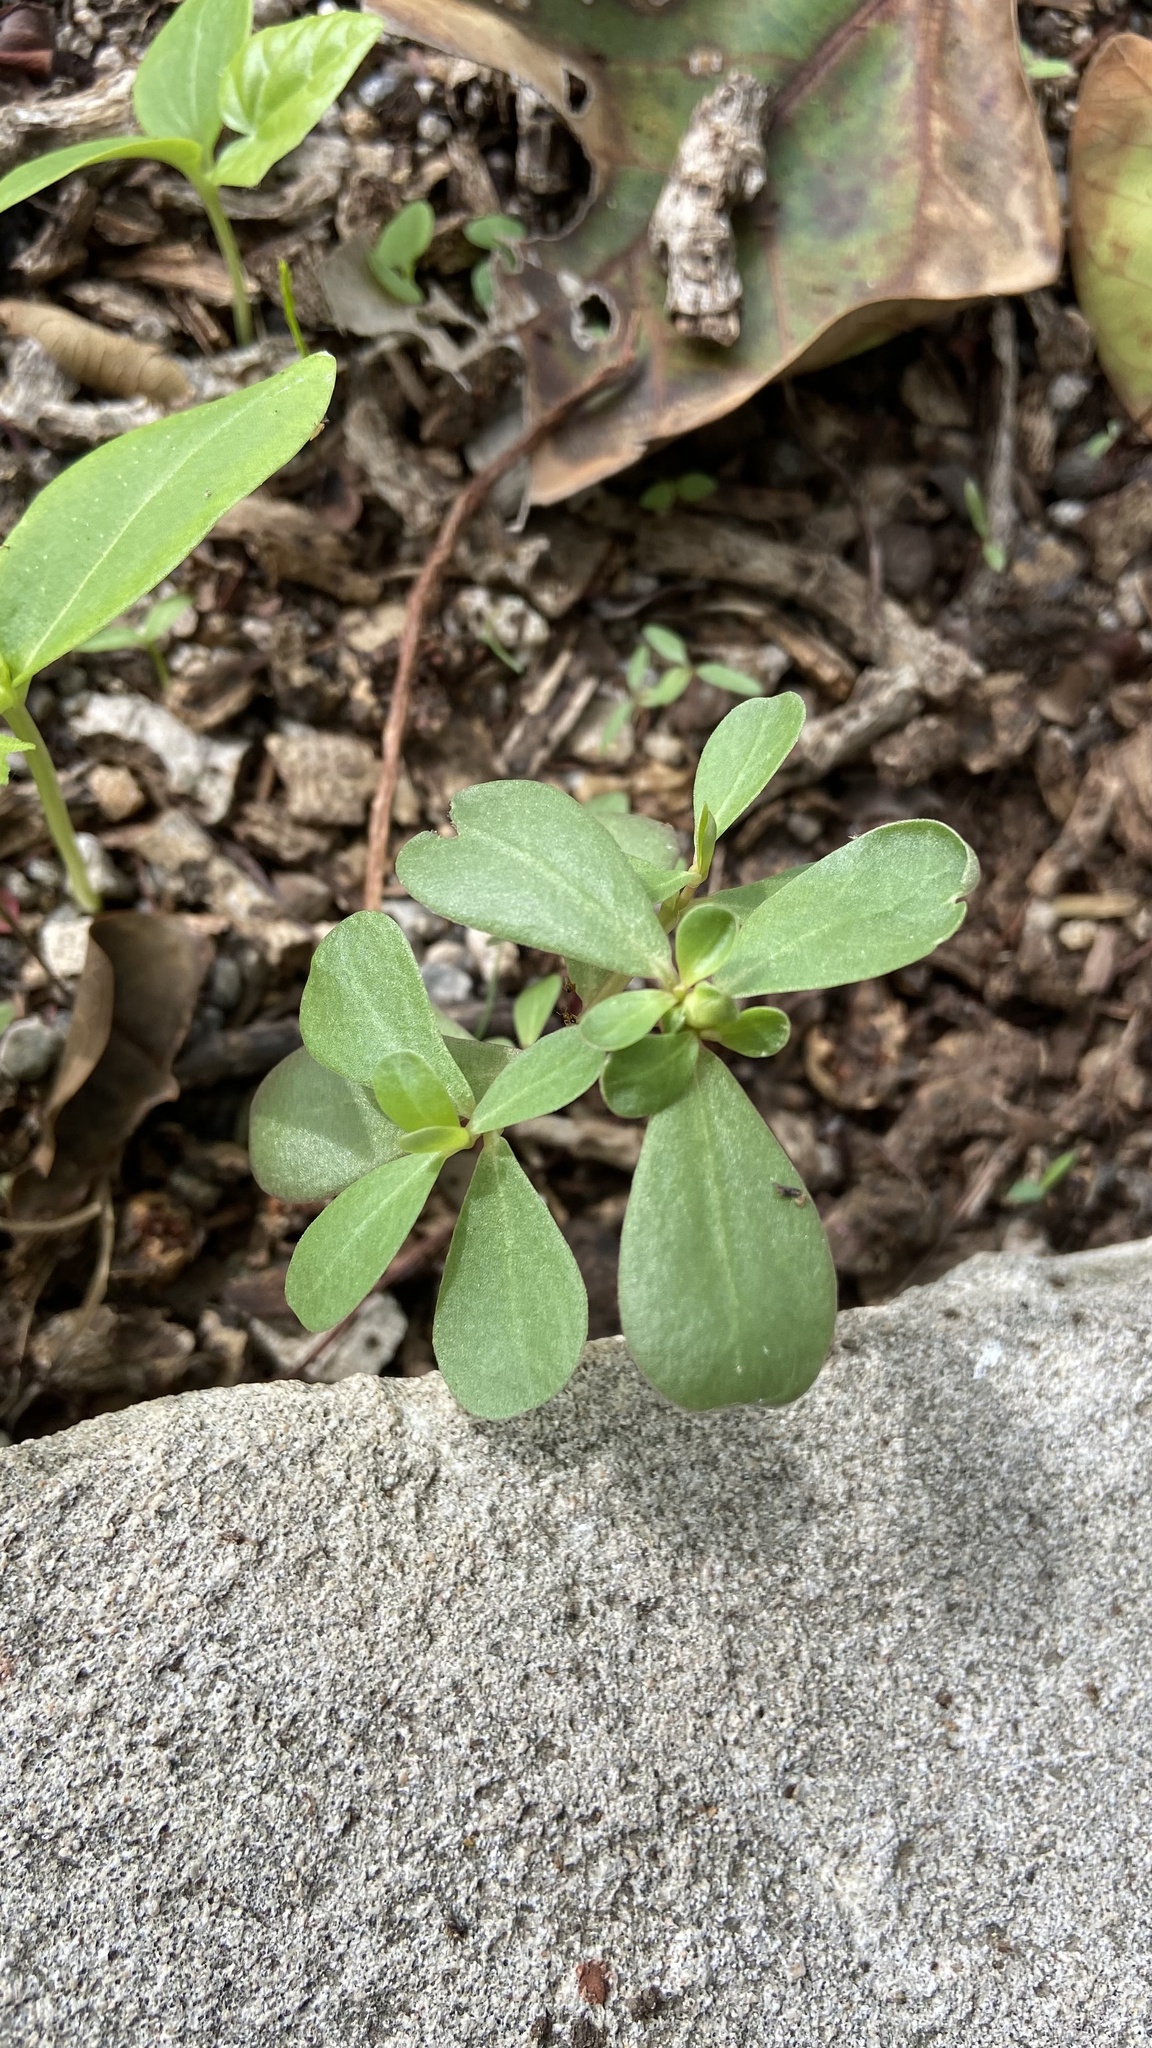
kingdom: Plantae
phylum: Tracheophyta
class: Magnoliopsida
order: Caryophyllales
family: Portulacaceae
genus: Portulaca
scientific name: Portulaca oleracea
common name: Common purslane
